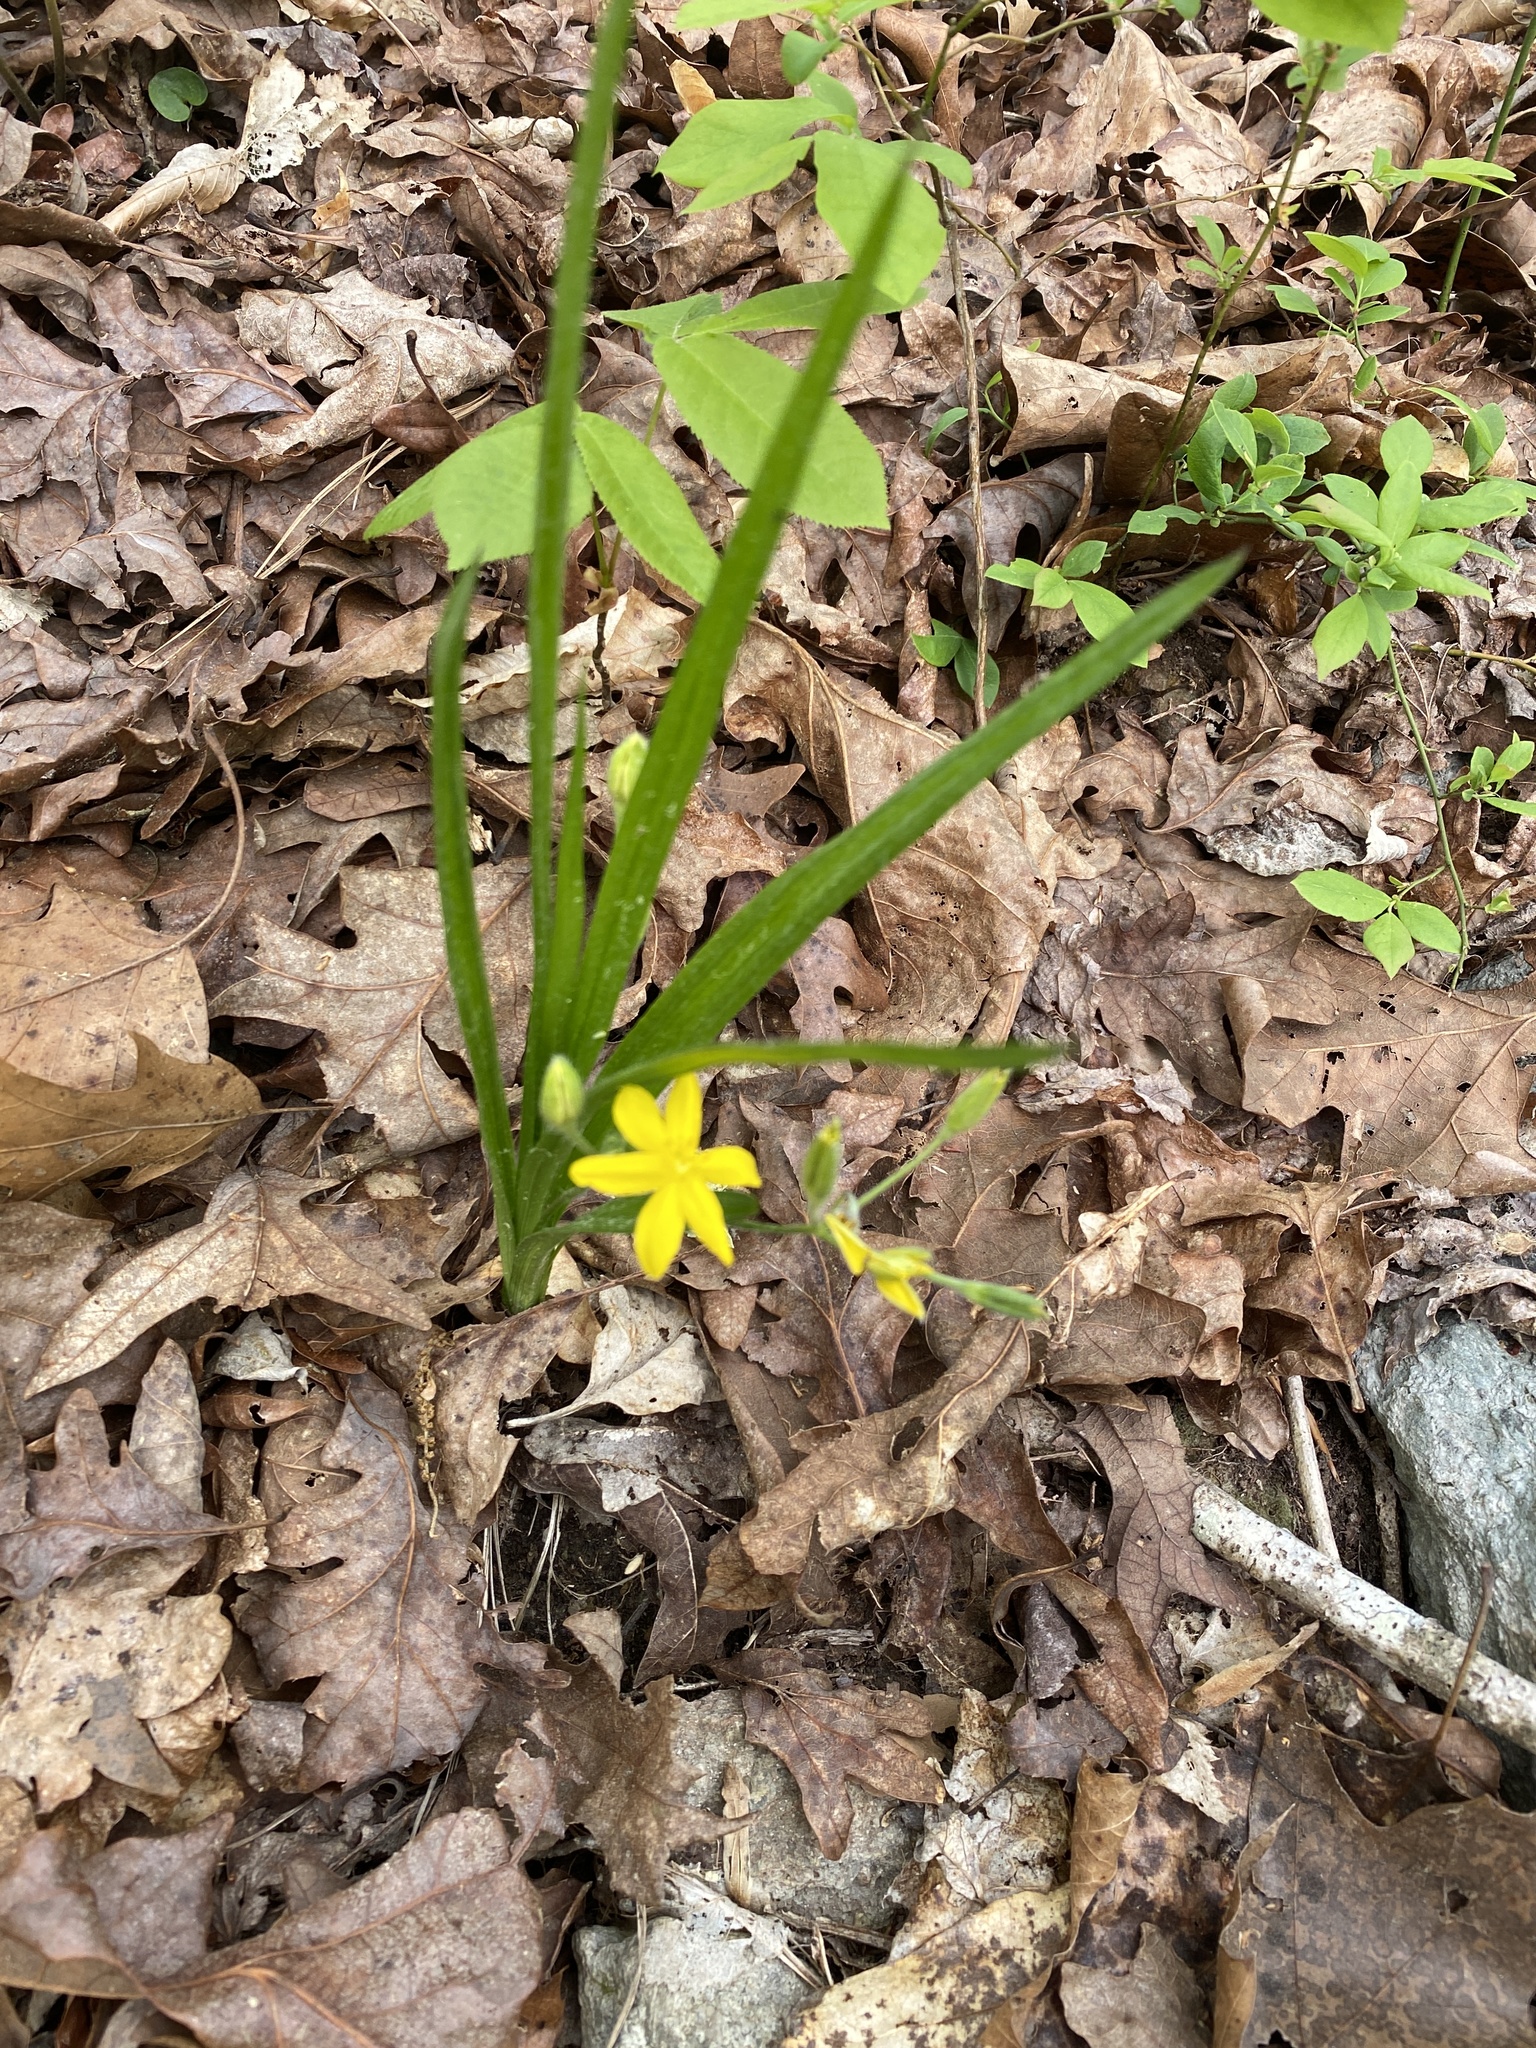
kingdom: Plantae
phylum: Tracheophyta
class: Liliopsida
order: Asparagales
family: Hypoxidaceae
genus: Hypoxis
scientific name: Hypoxis hirsuta
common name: Common goldstar
